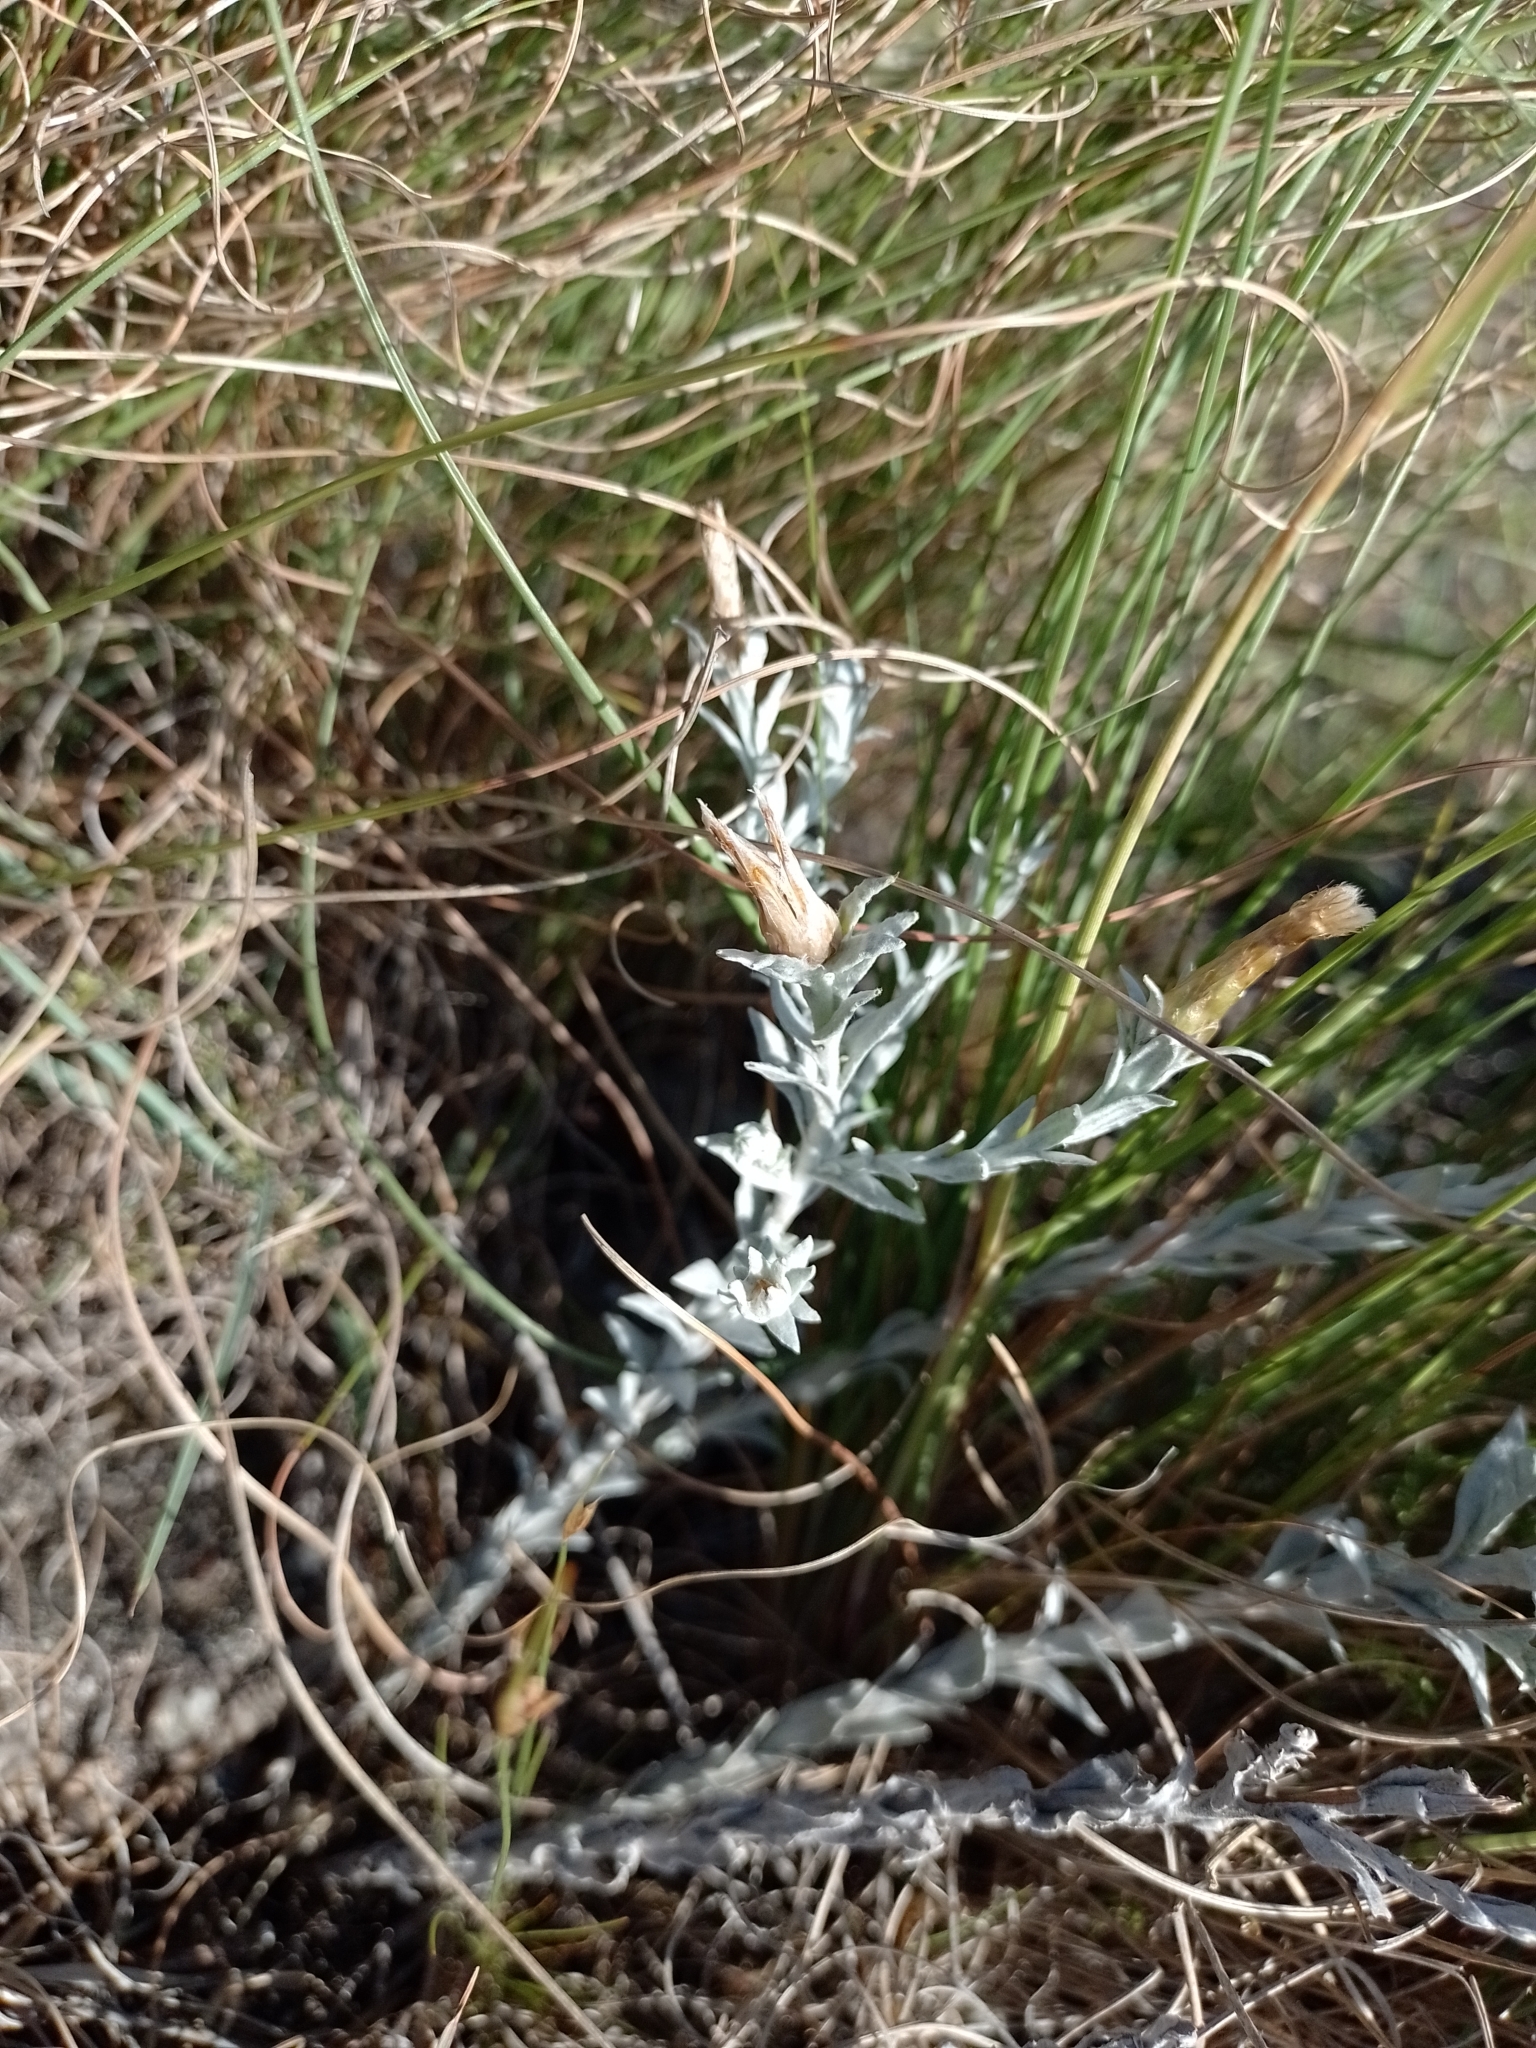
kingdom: Plantae
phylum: Tracheophyta
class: Magnoliopsida
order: Asterales
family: Asteraceae
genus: Lucilia
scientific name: Lucilia acutifolia
